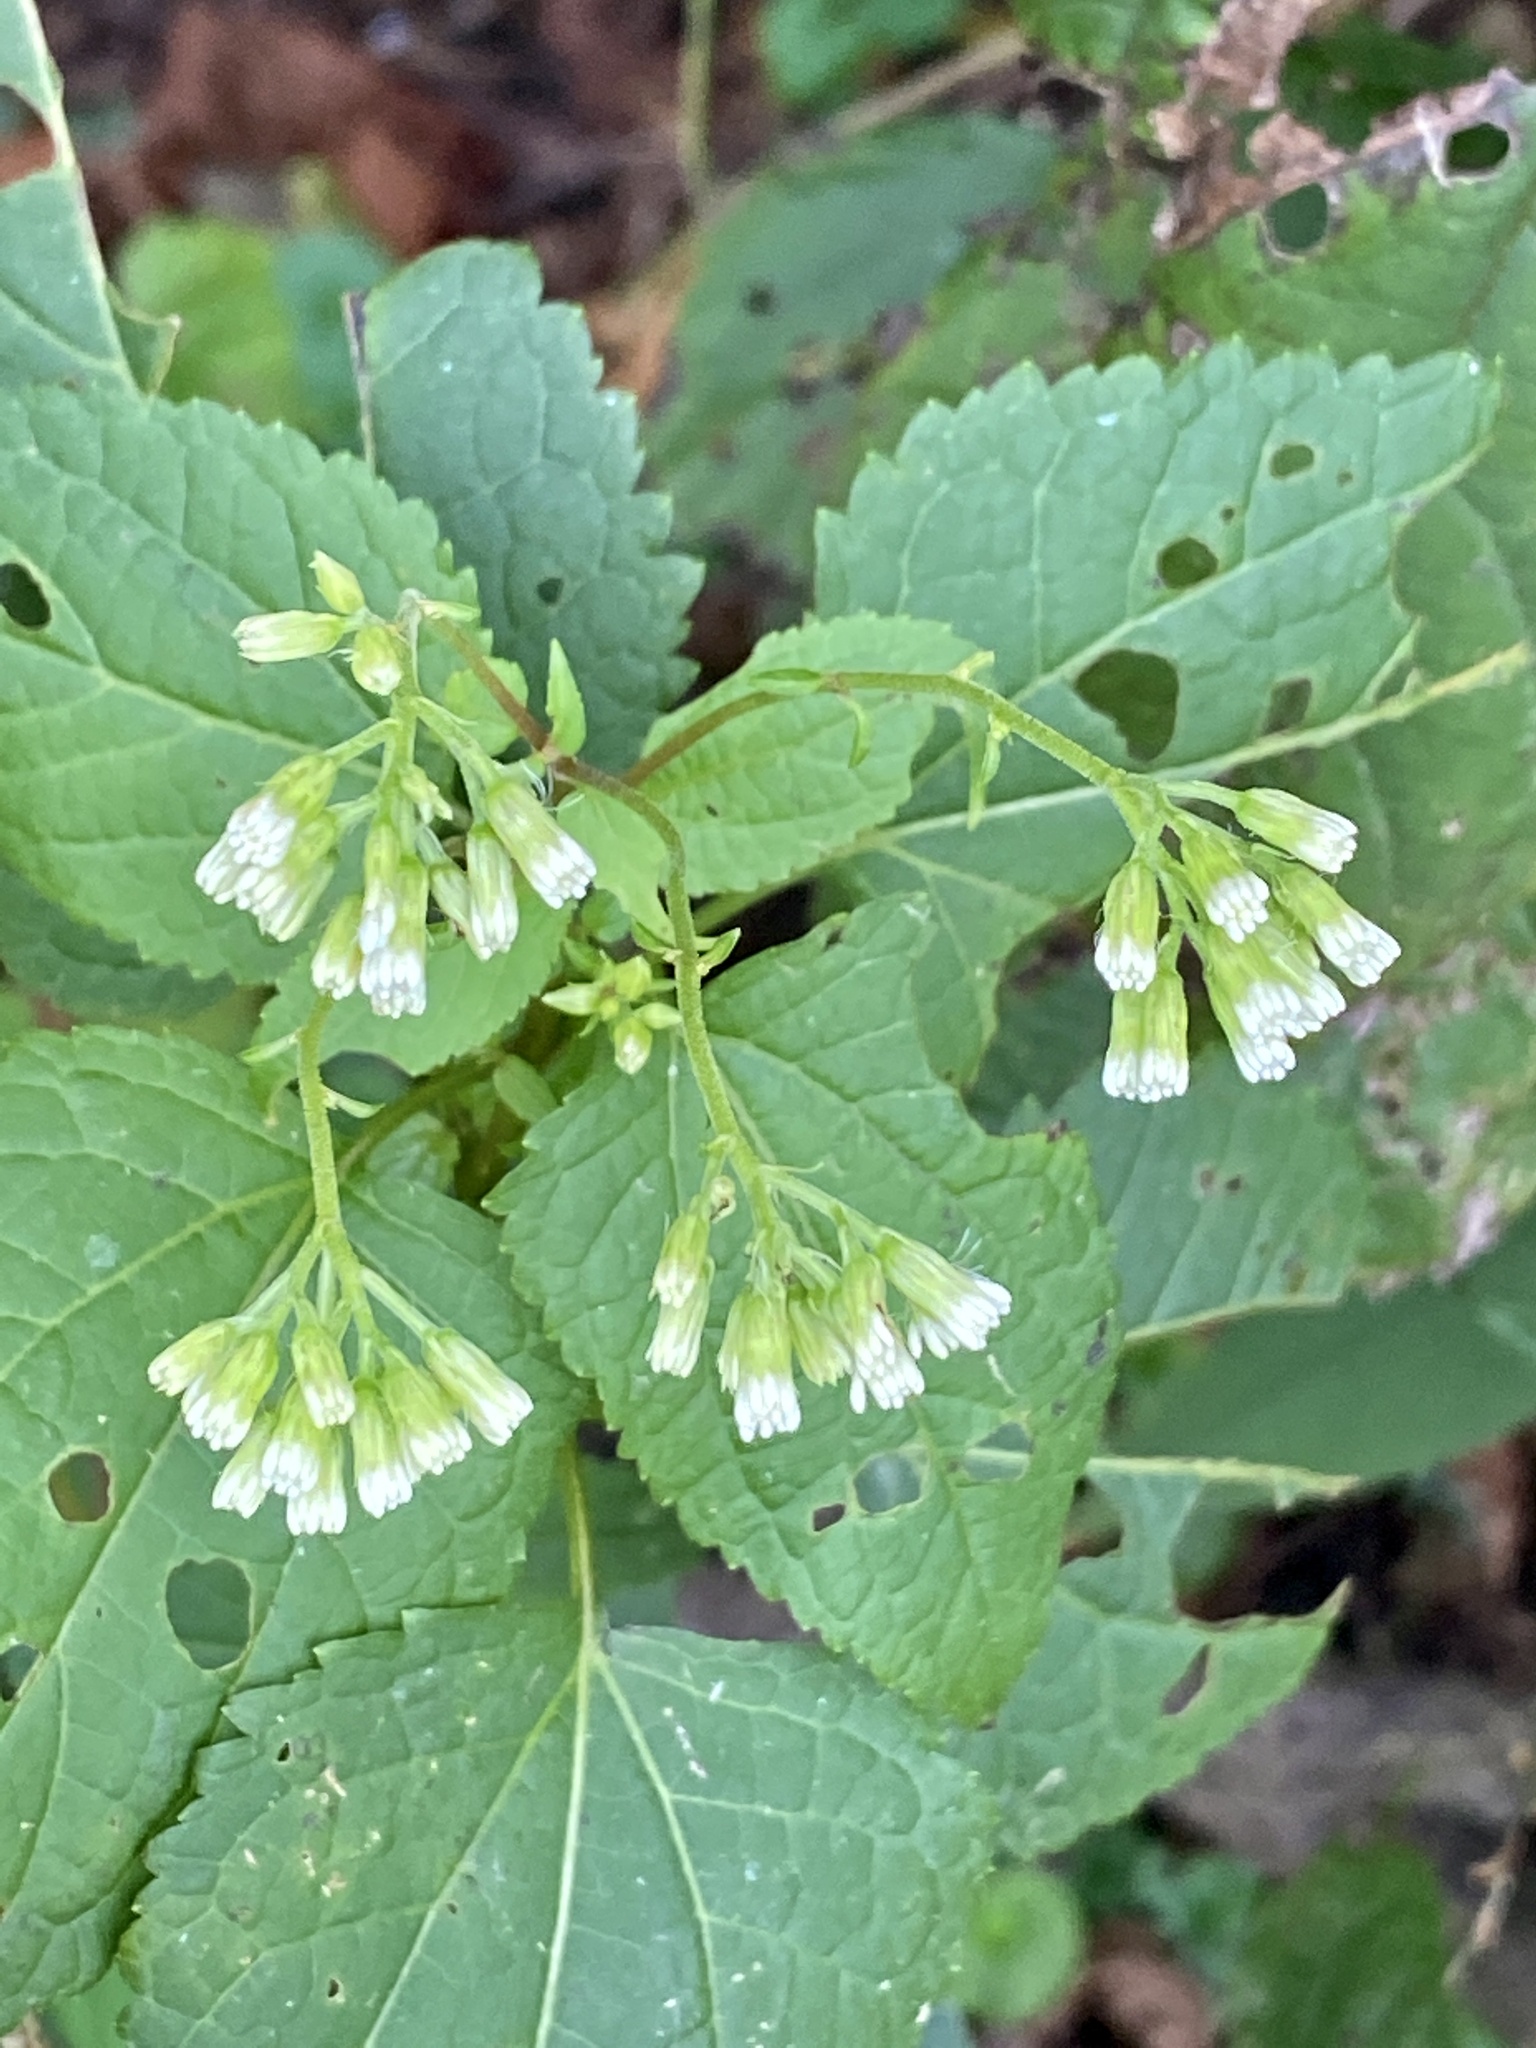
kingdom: Plantae
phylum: Tracheophyta
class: Magnoliopsida
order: Asterales
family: Asteraceae
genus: Ageratina
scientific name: Ageratina altissima
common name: White snakeroot
